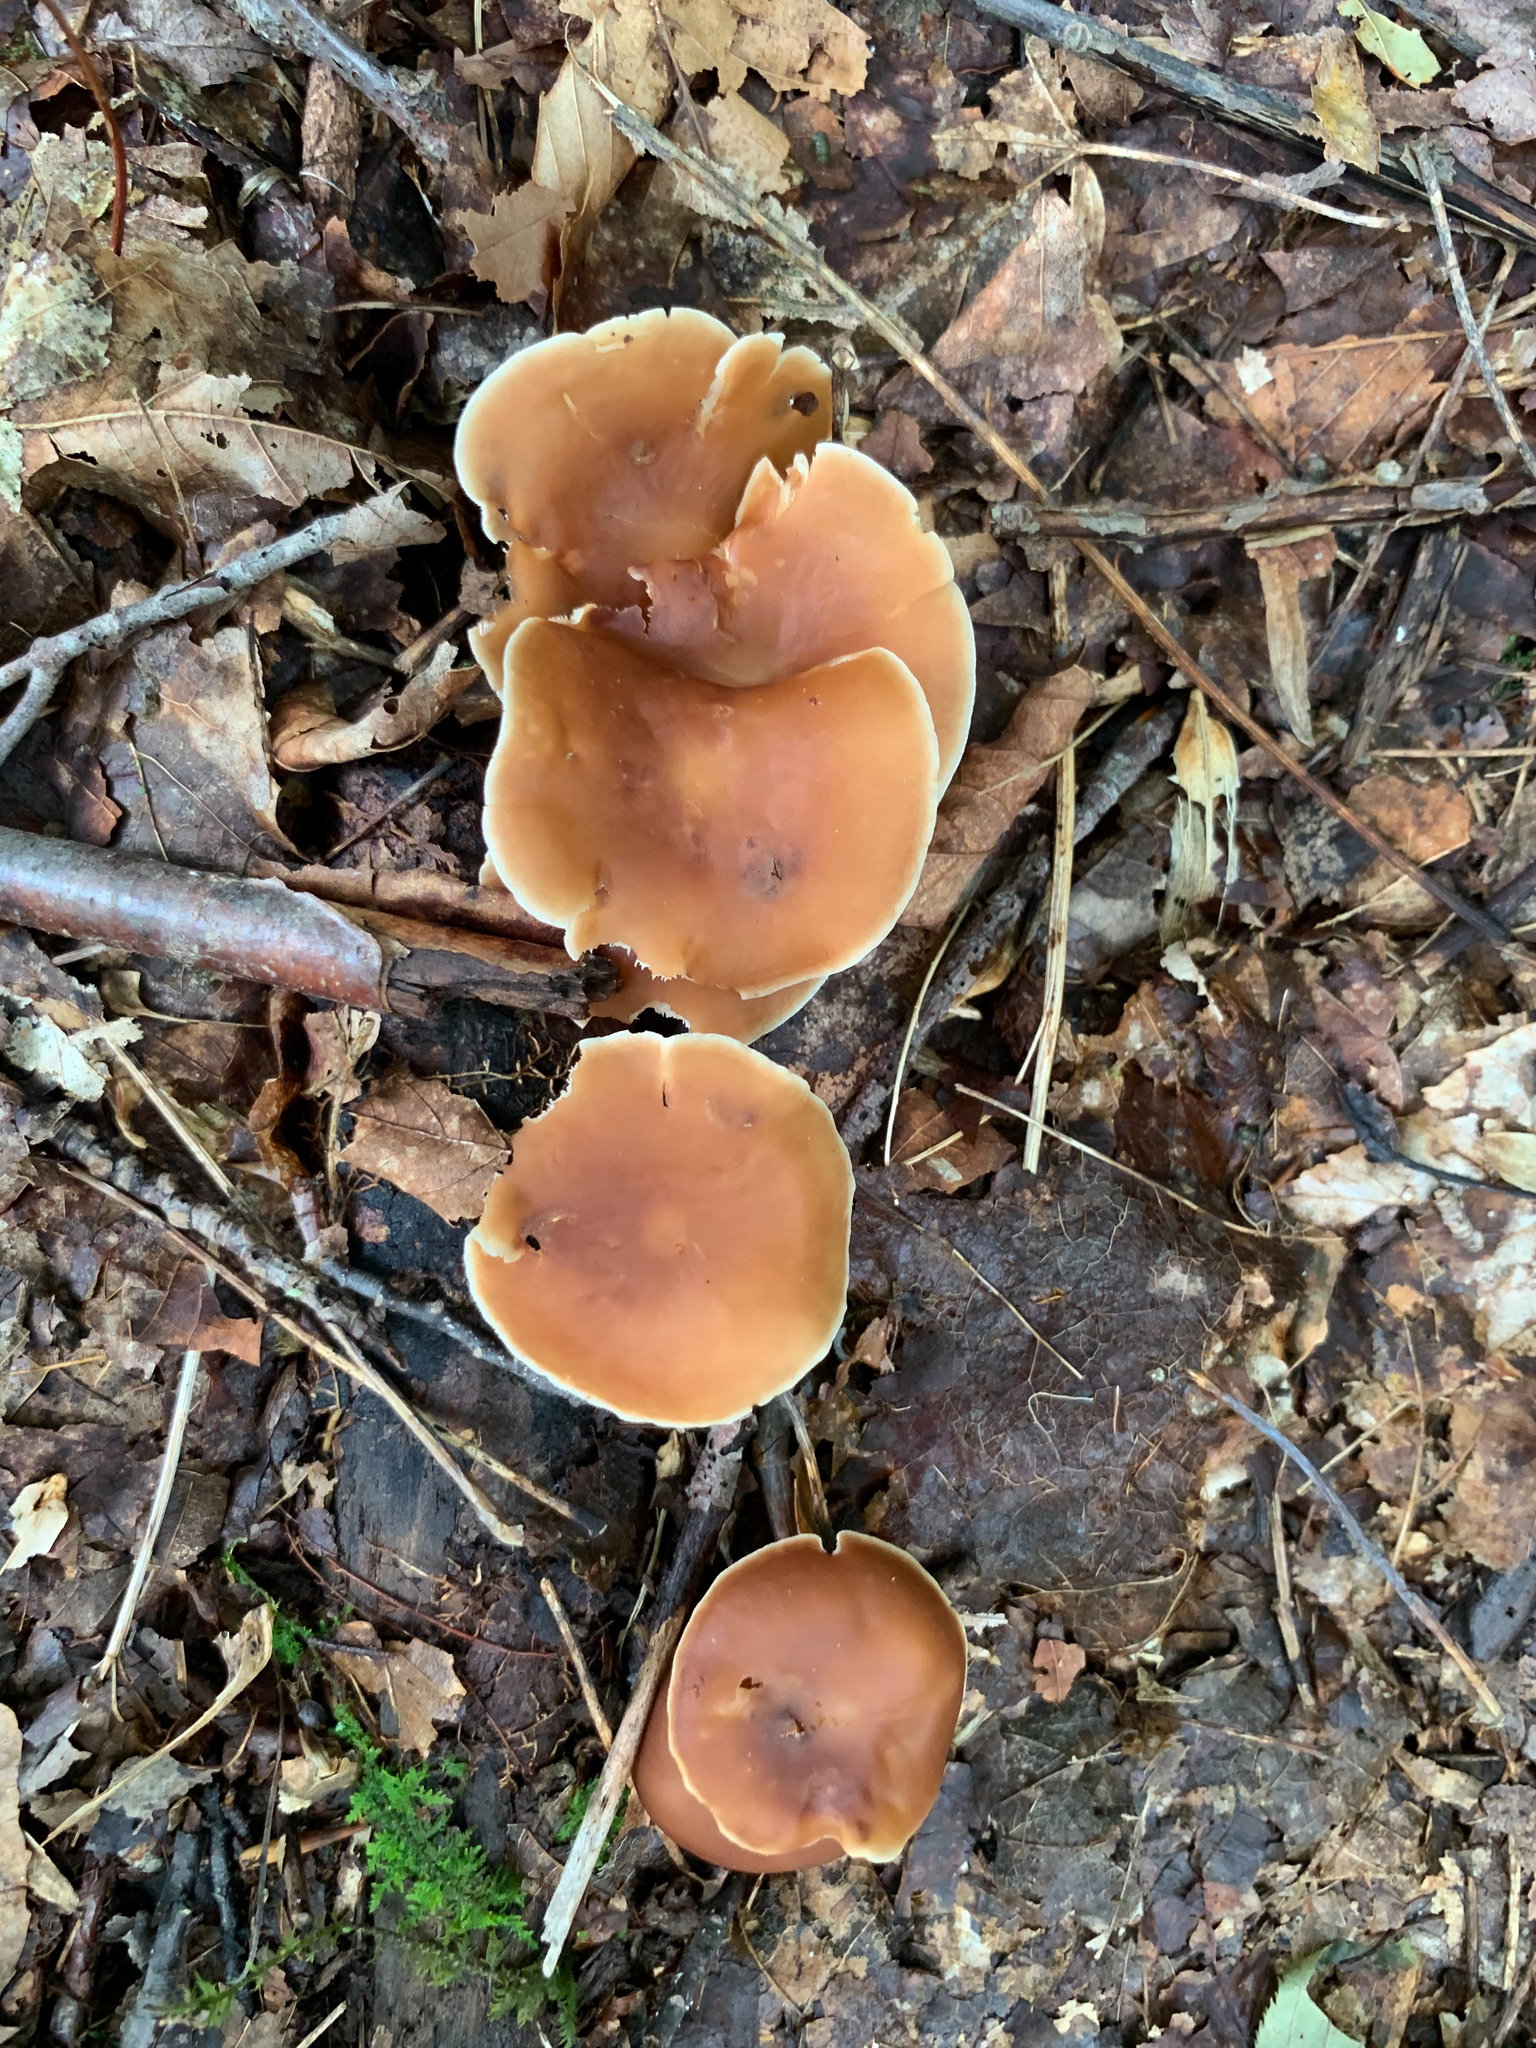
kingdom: Fungi
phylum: Basidiomycota
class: Agaricomycetes
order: Agaricales
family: Omphalotaceae
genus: Gymnopus
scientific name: Gymnopus dryophilus
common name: Penny top
